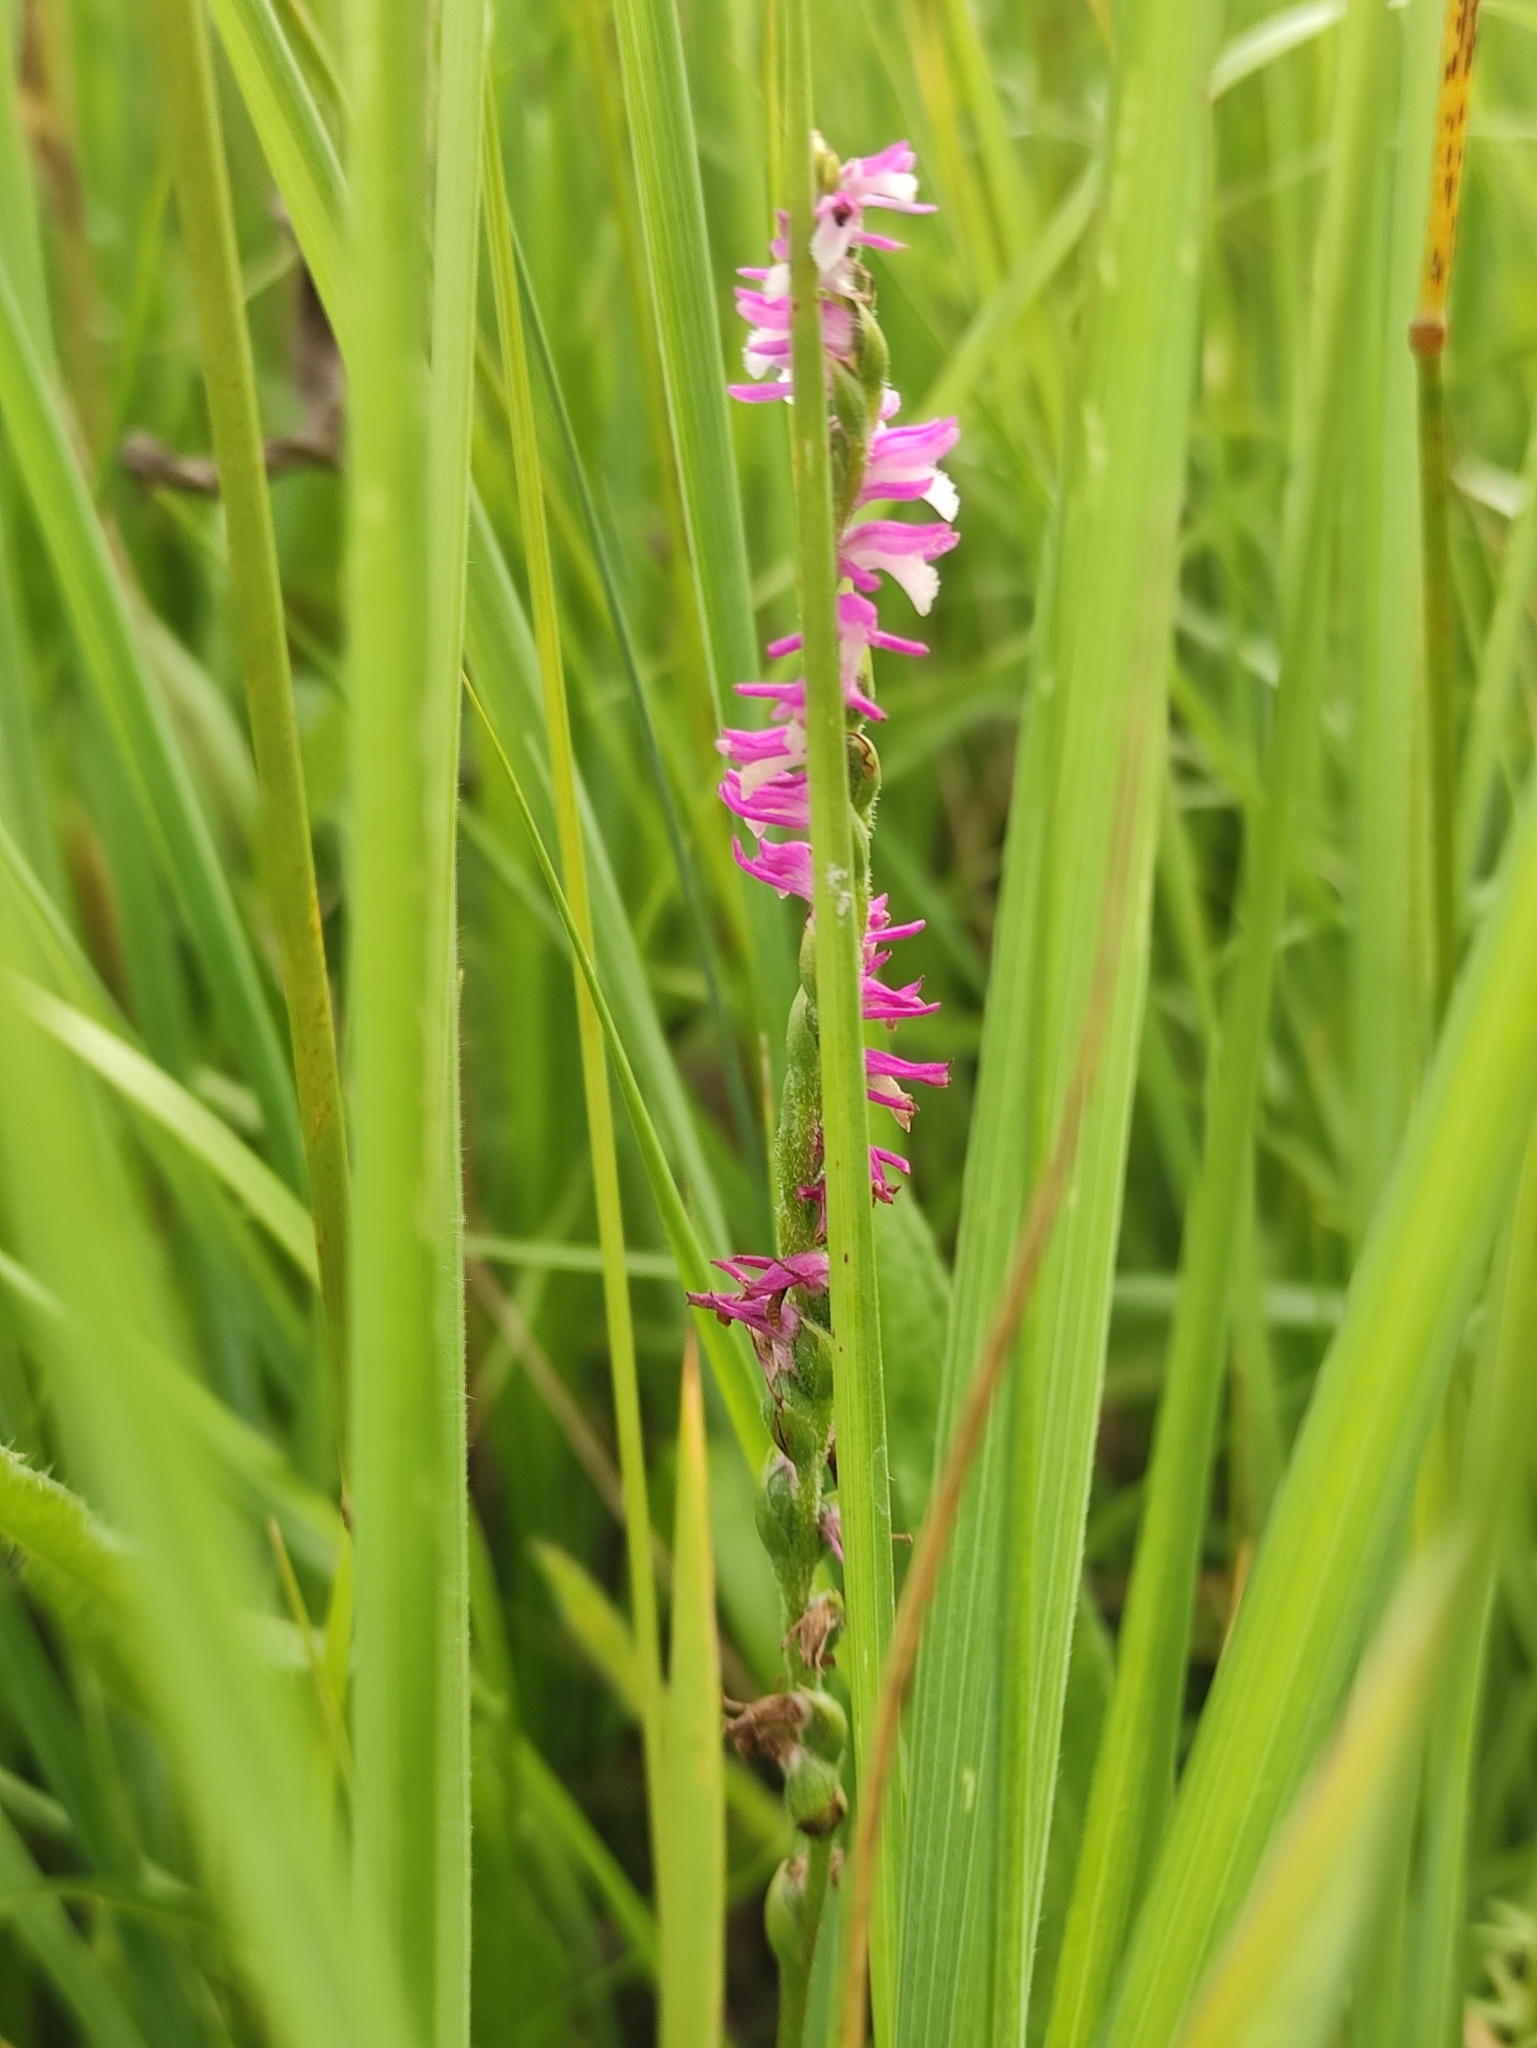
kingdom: Plantae
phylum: Tracheophyta
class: Liliopsida
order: Asparagales
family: Orchidaceae
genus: Spiranthes
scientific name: Spiranthes australis
